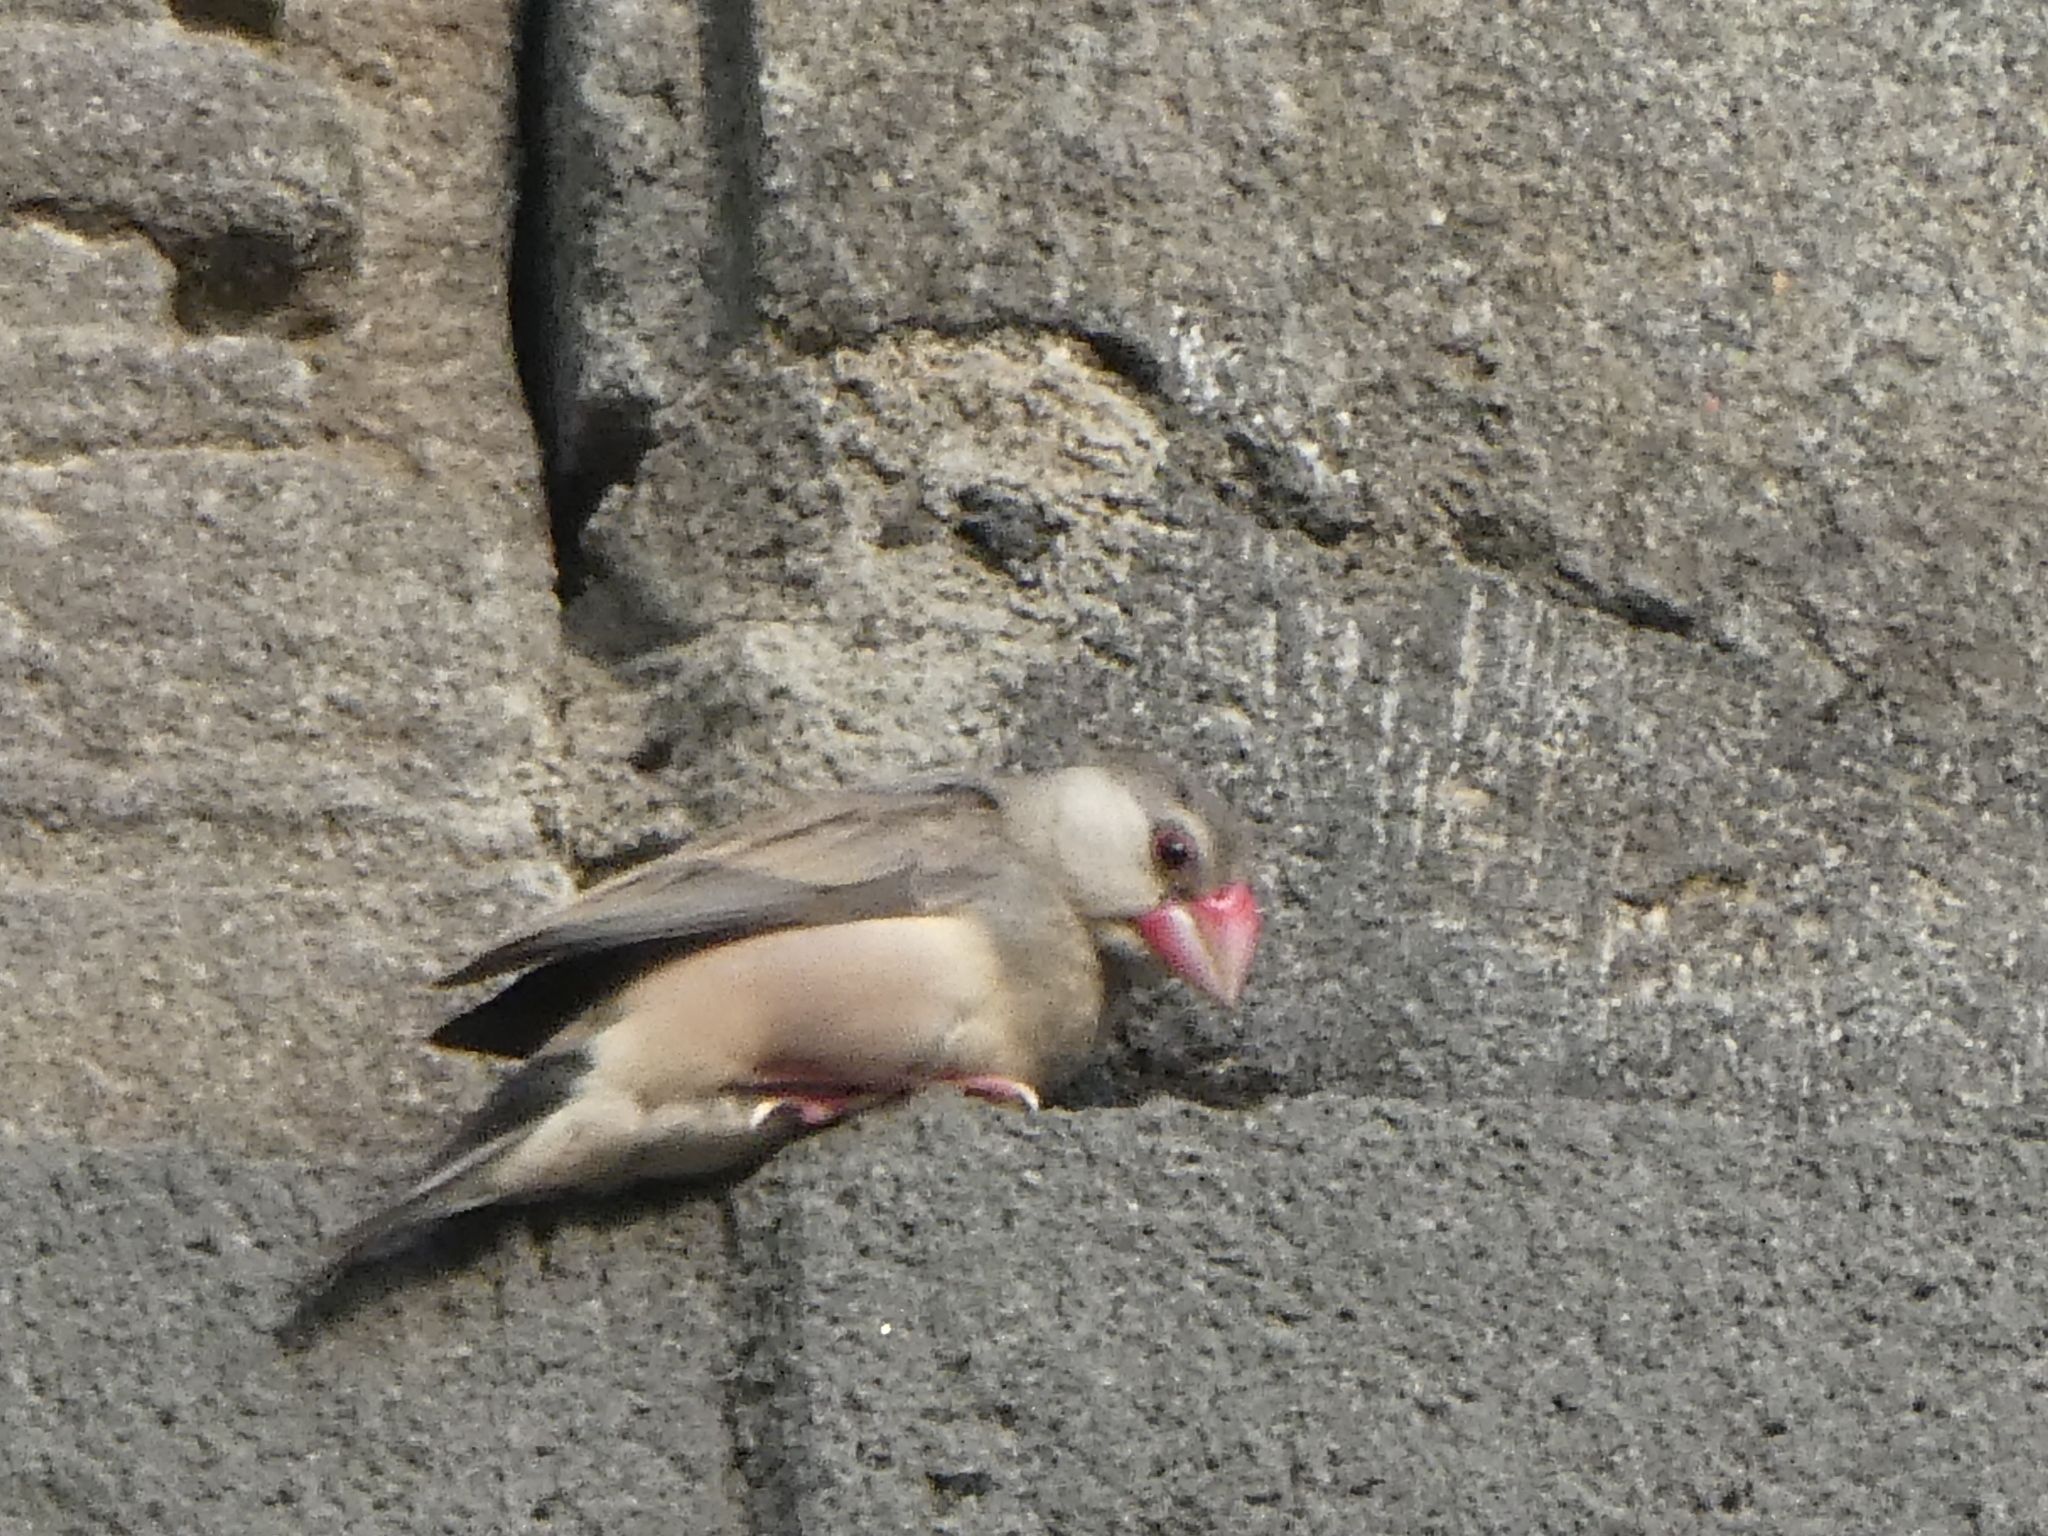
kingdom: Animalia
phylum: Chordata
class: Aves
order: Passeriformes
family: Estrildidae
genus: Lonchura
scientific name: Lonchura oryzivora
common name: Java sparrow
